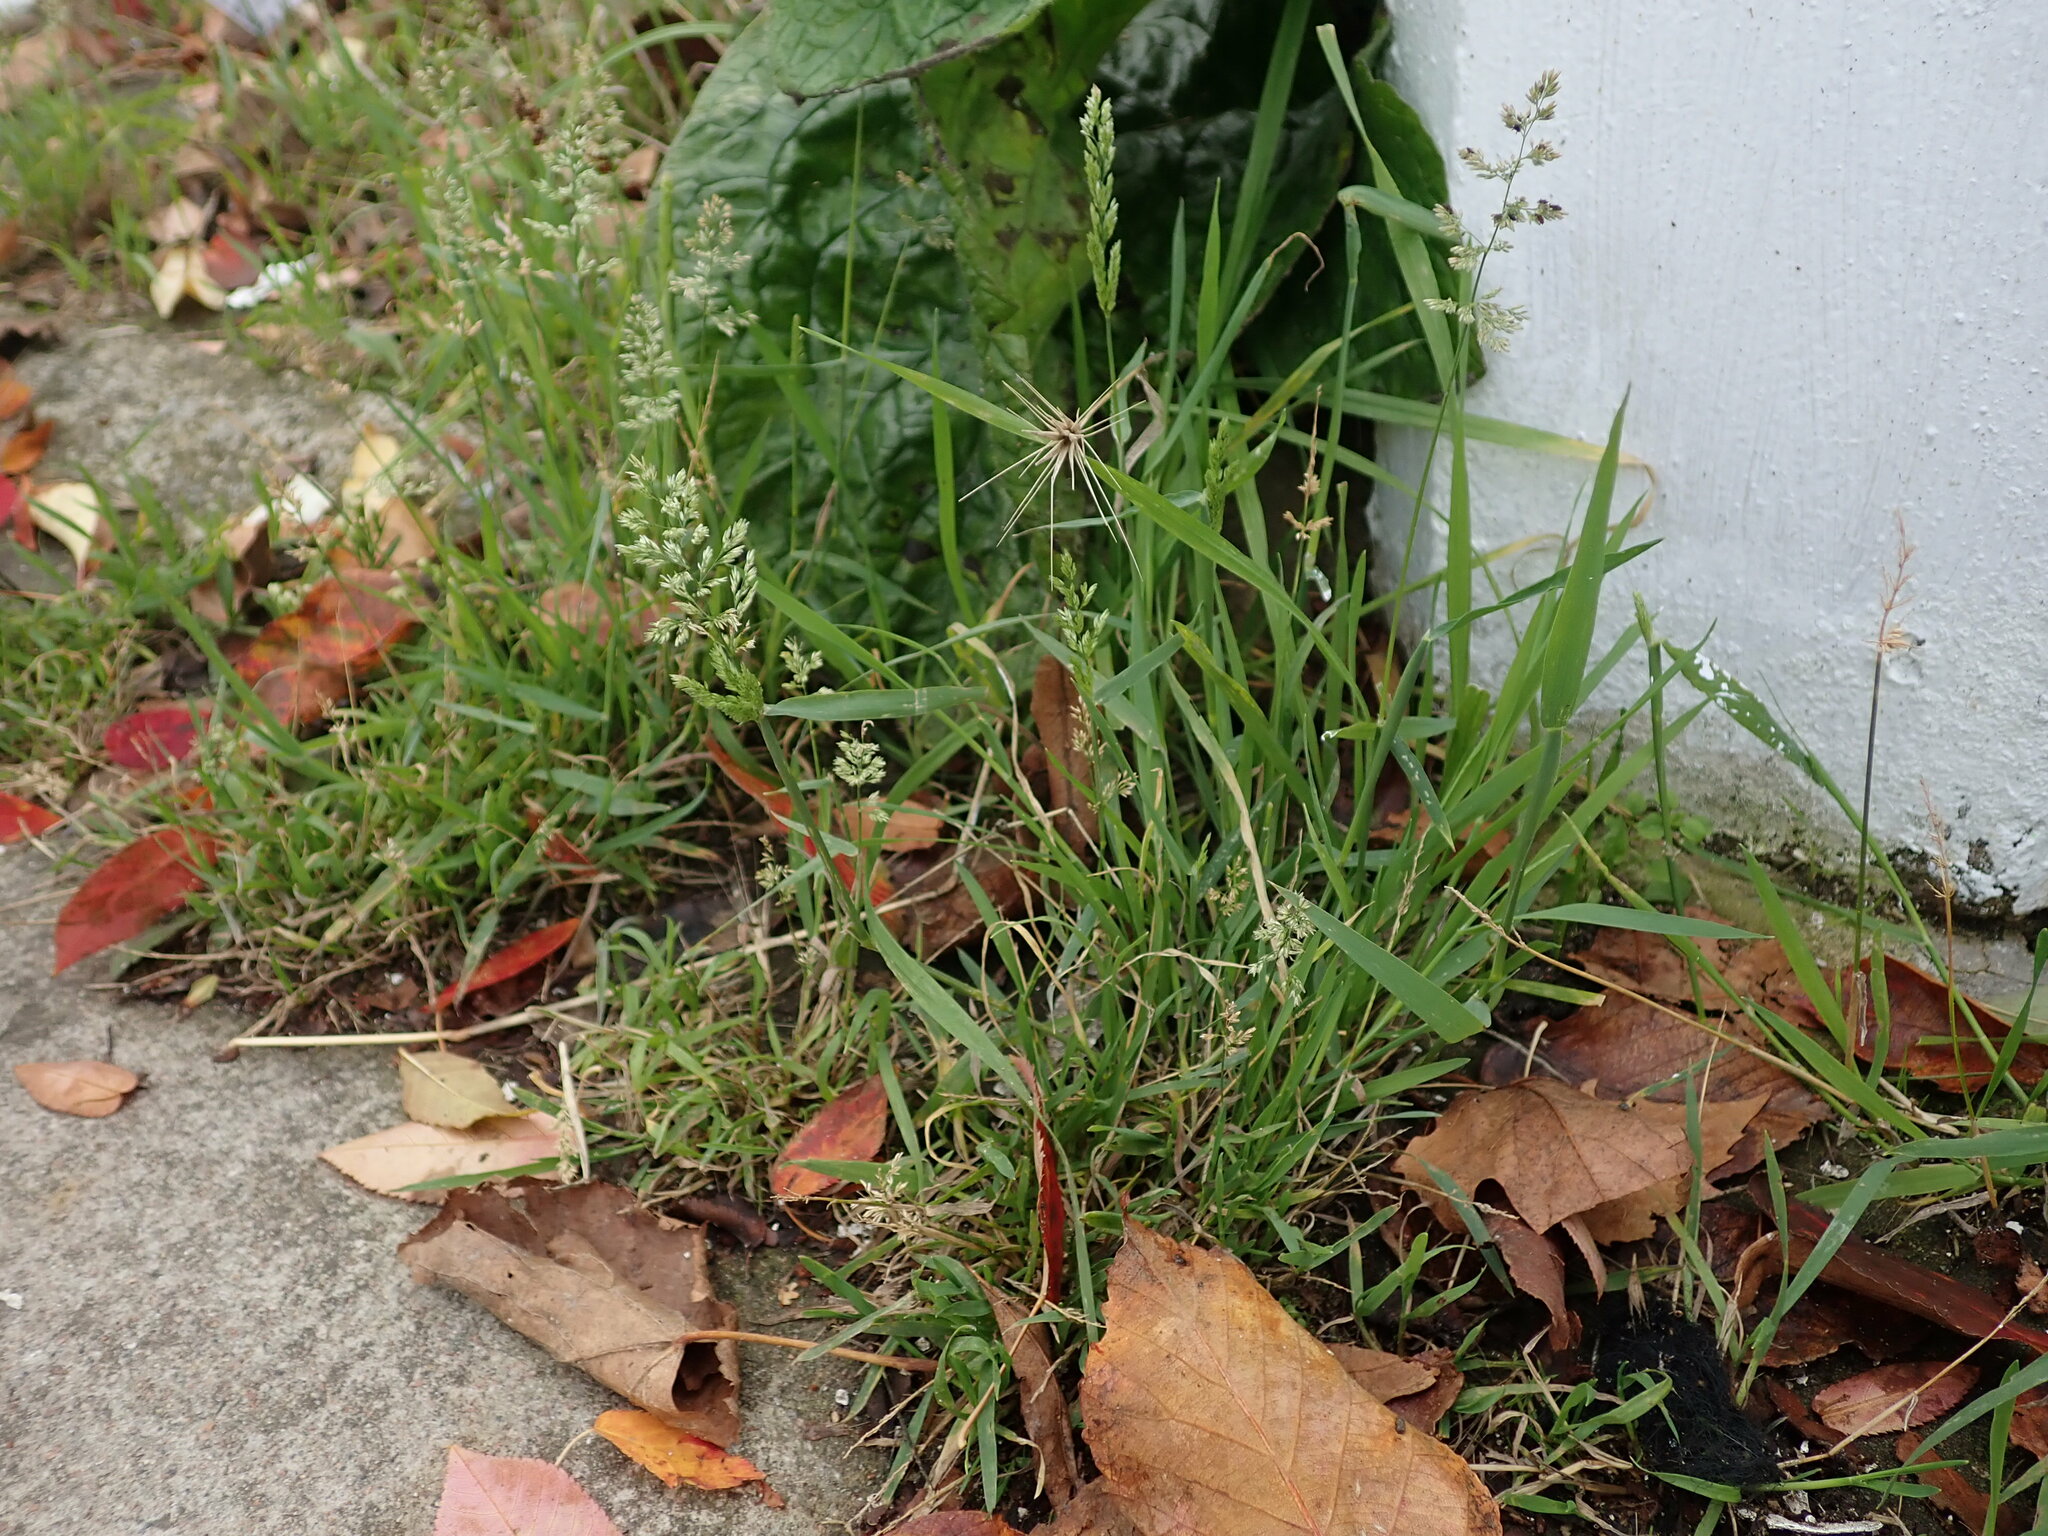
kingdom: Plantae
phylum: Tracheophyta
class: Liliopsida
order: Poales
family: Poaceae
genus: Polypogon
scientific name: Polypogon viridis
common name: Water bent
